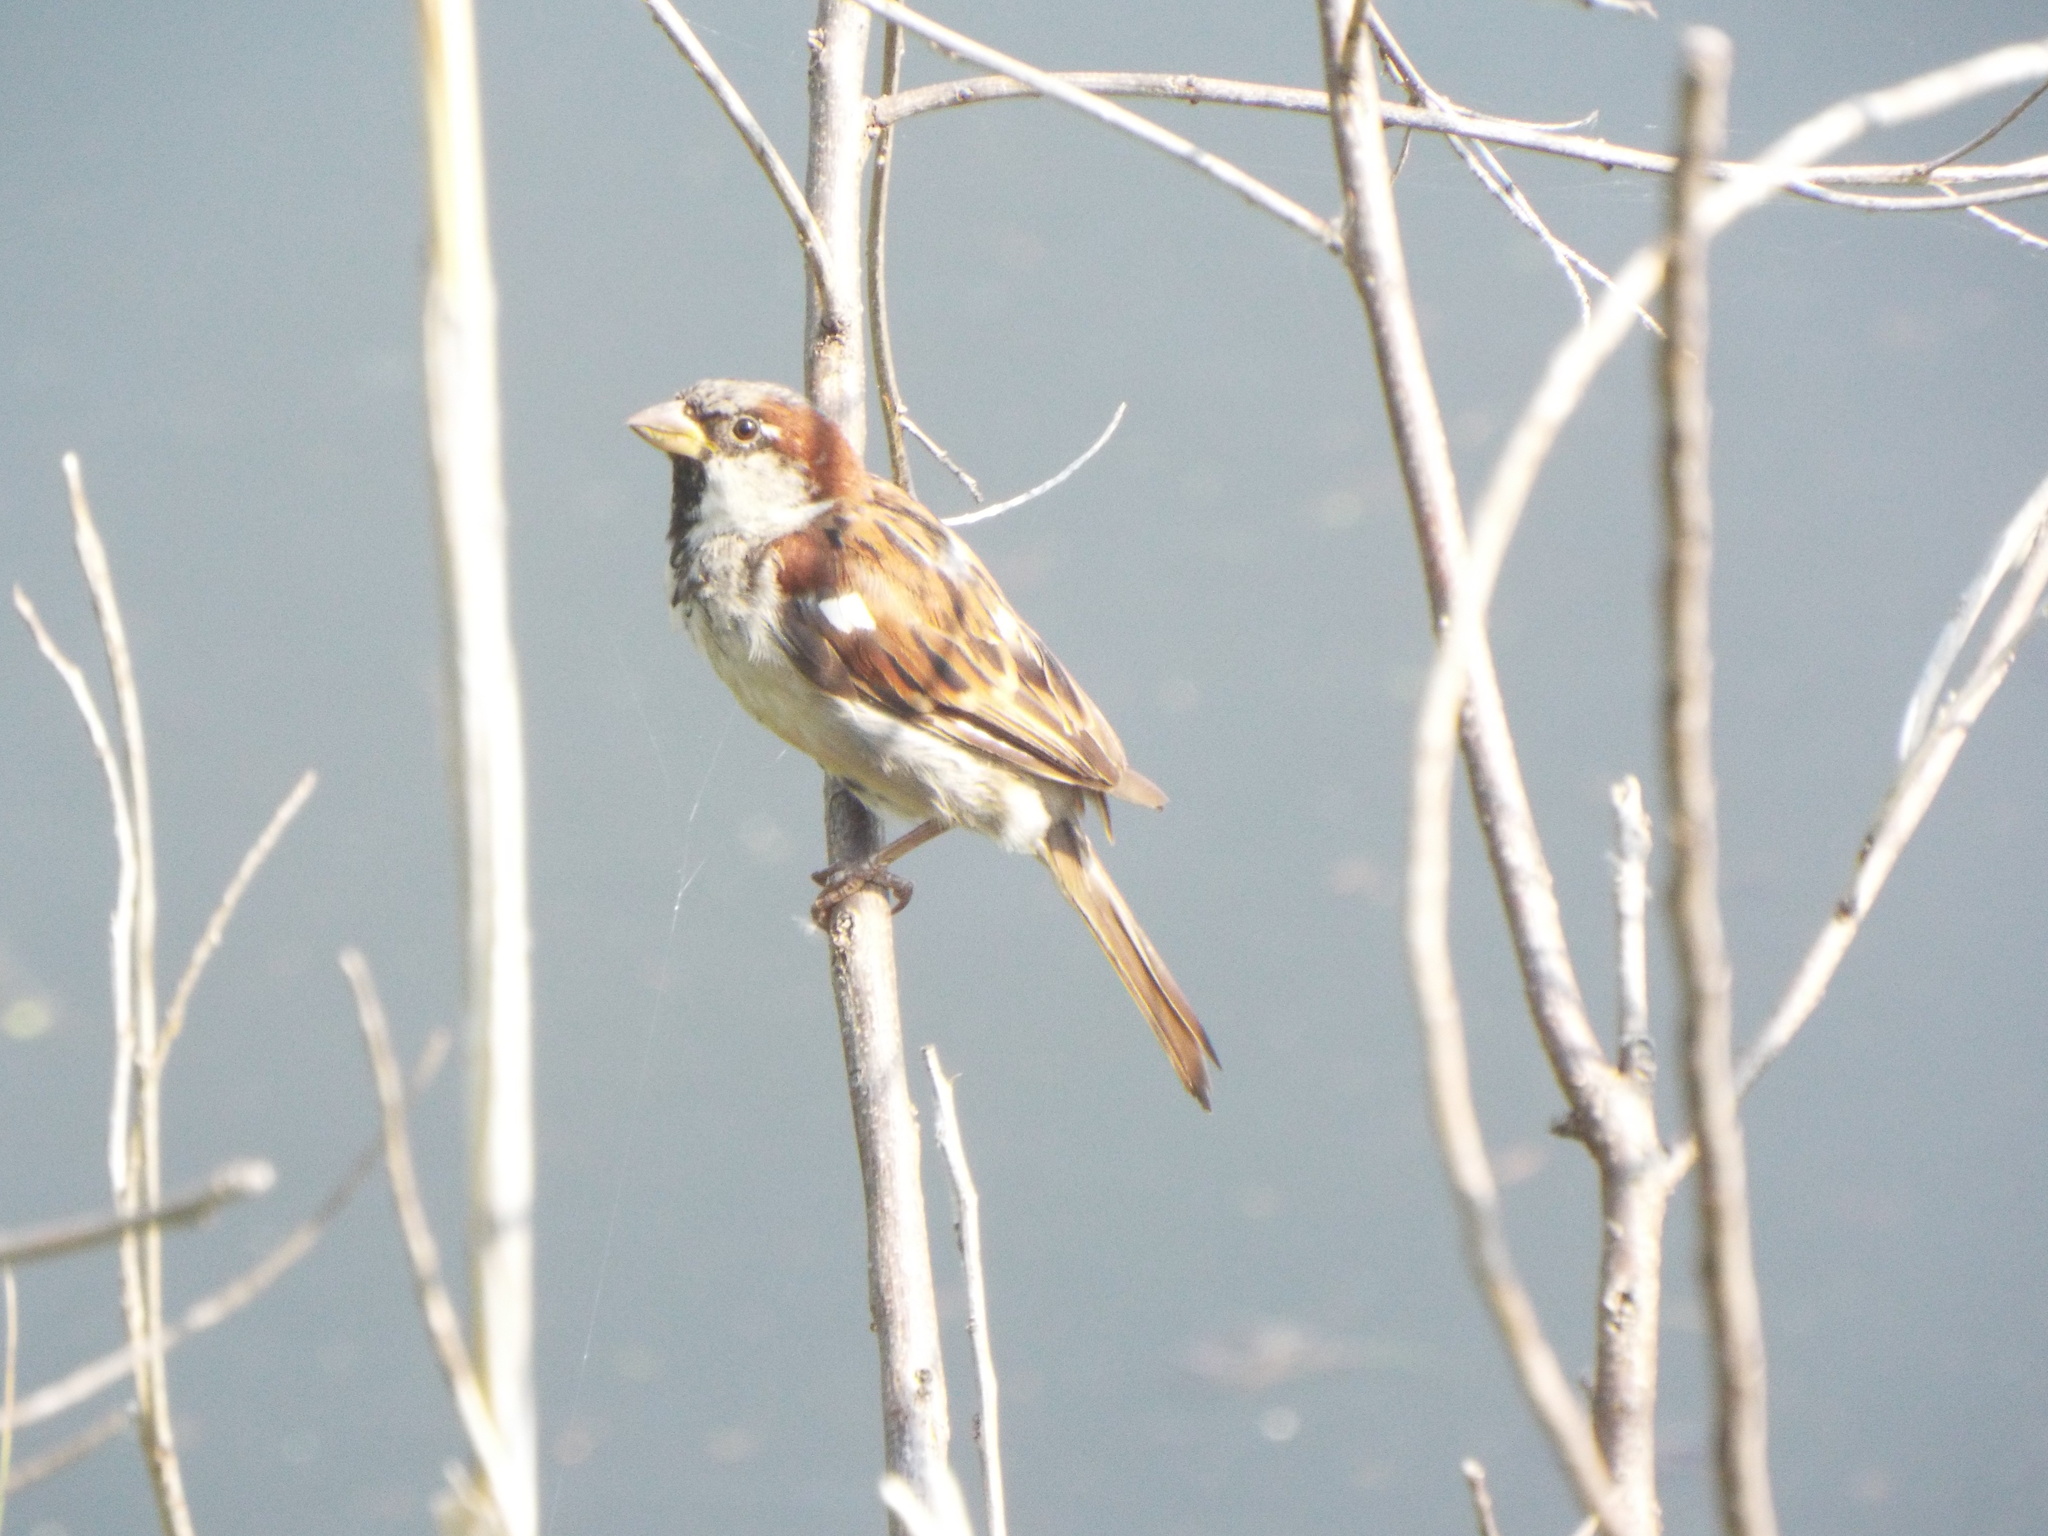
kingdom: Animalia
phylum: Chordata
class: Aves
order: Passeriformes
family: Passeridae
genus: Passer
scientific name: Passer domesticus
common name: House sparrow
